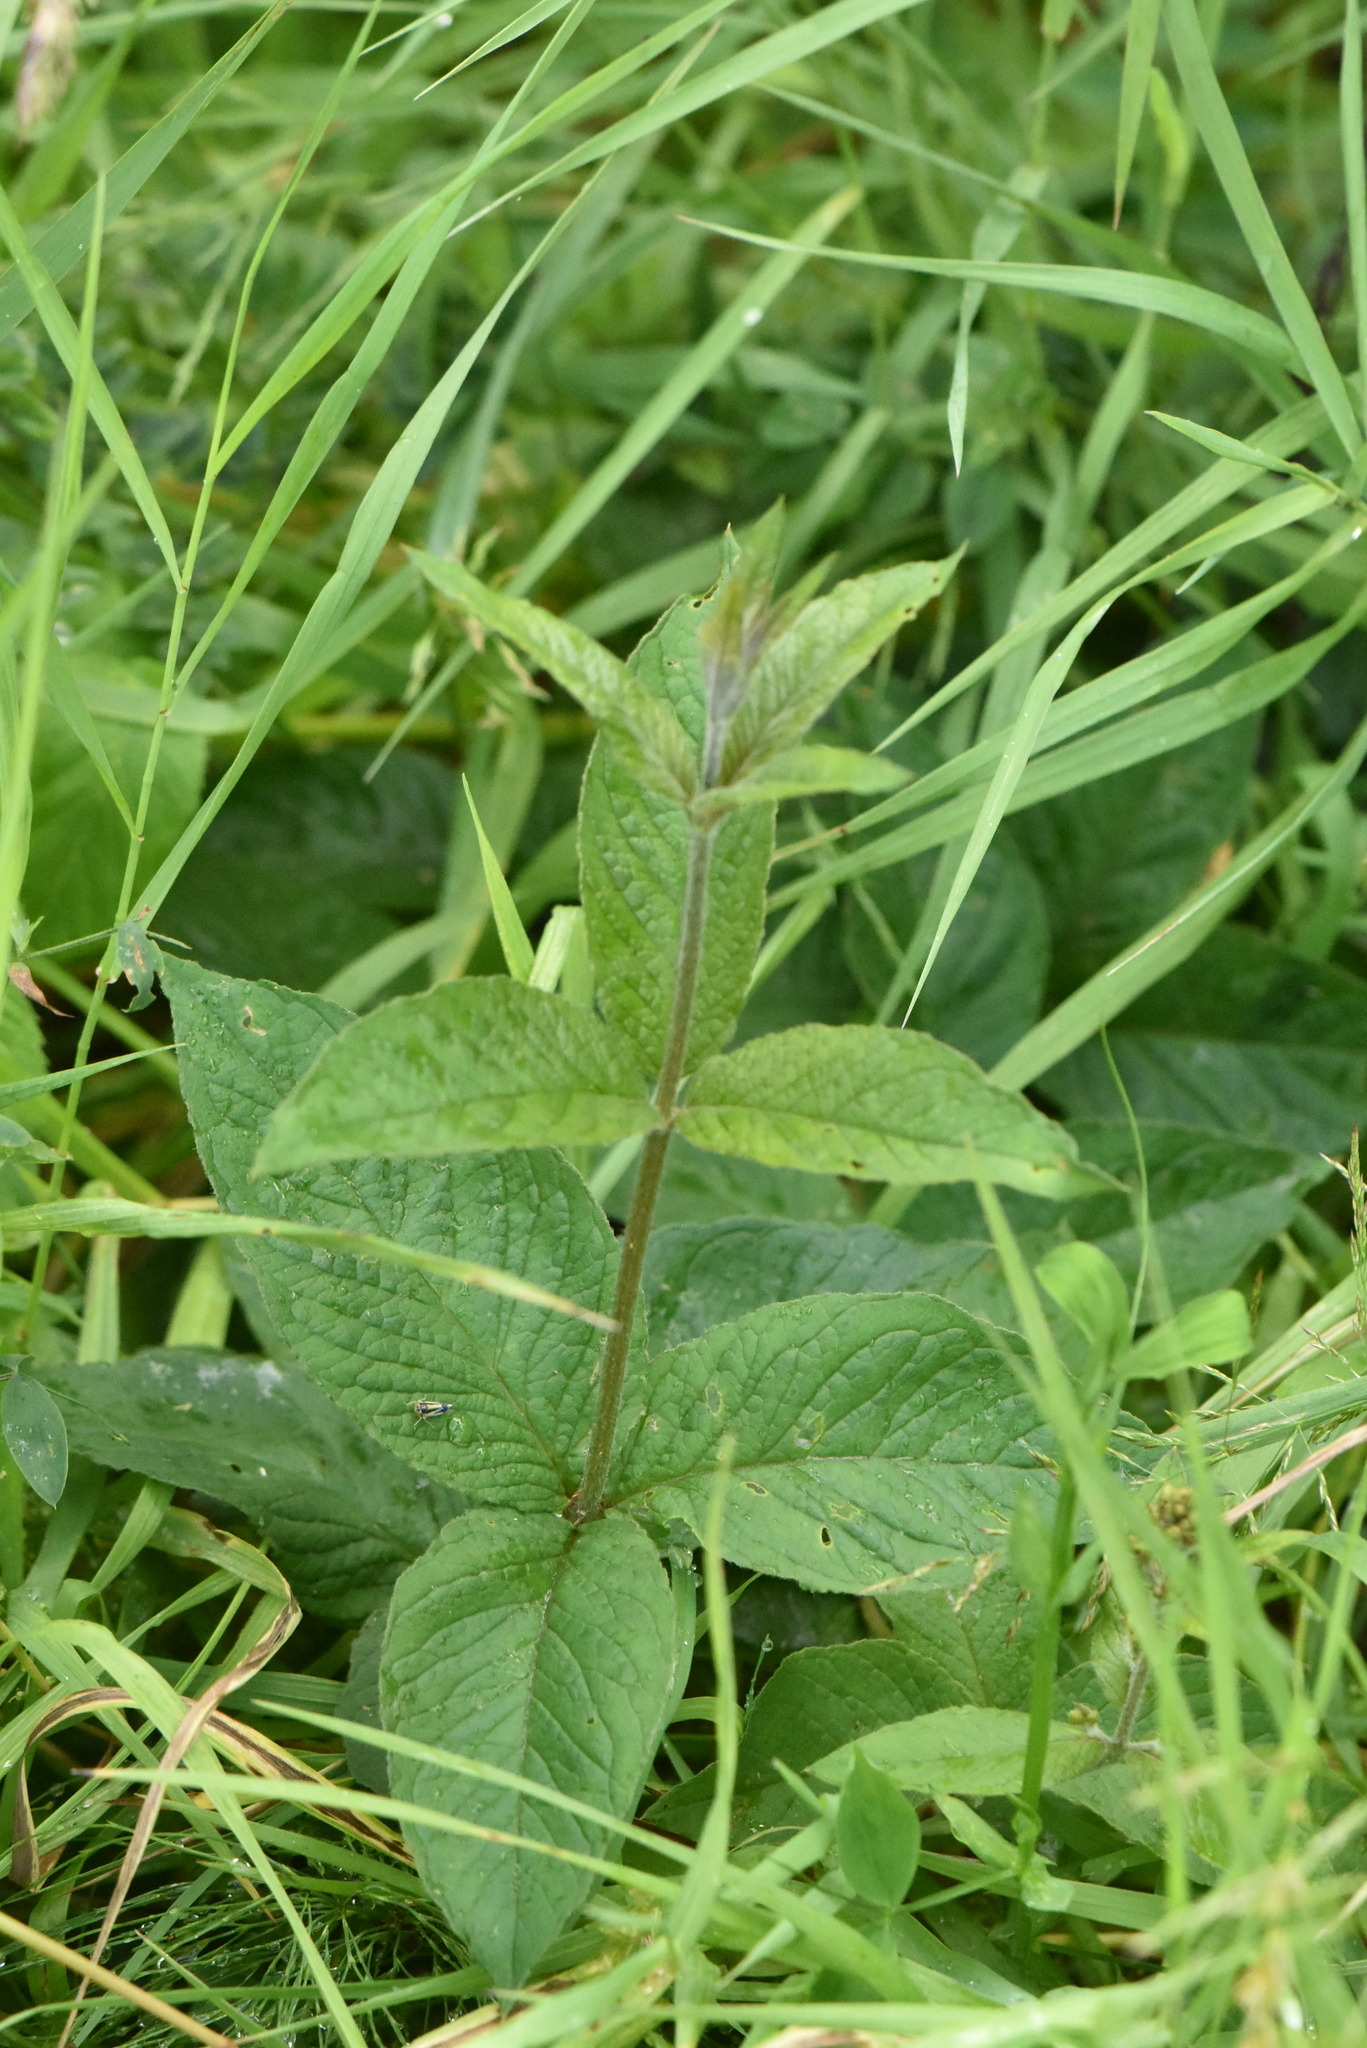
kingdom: Plantae
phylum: Tracheophyta
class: Magnoliopsida
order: Ericales
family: Primulaceae
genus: Lysimachia
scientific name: Lysimachia vulgaris
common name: Yellow loosestrife
